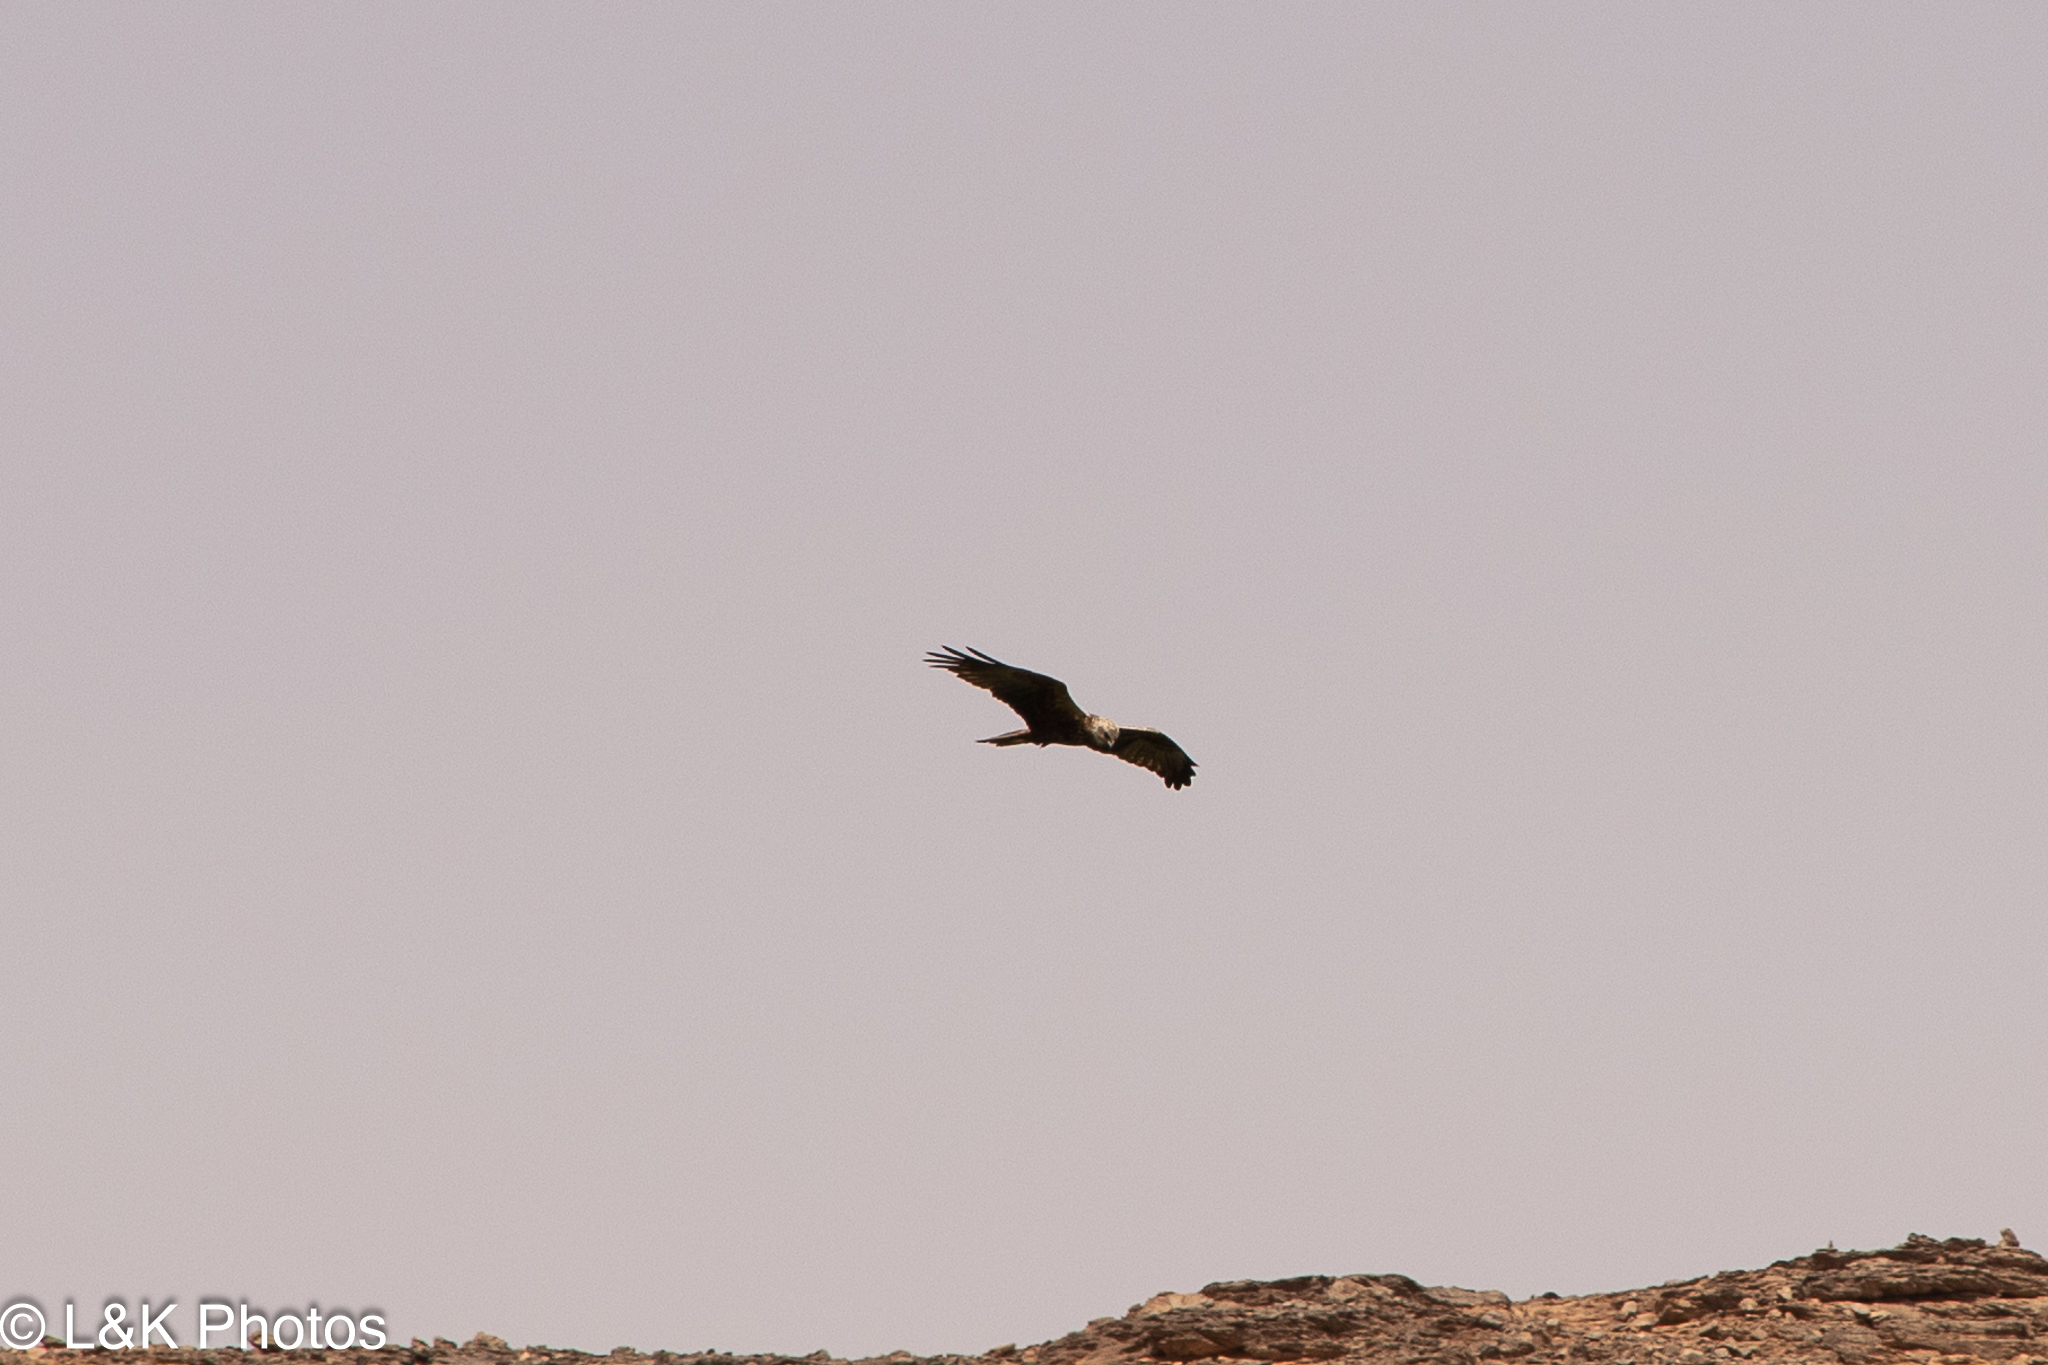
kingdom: Animalia
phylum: Chordata
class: Aves
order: Accipitriformes
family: Accipitridae
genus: Circus
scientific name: Circus aeruginosus
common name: Western marsh harrier
